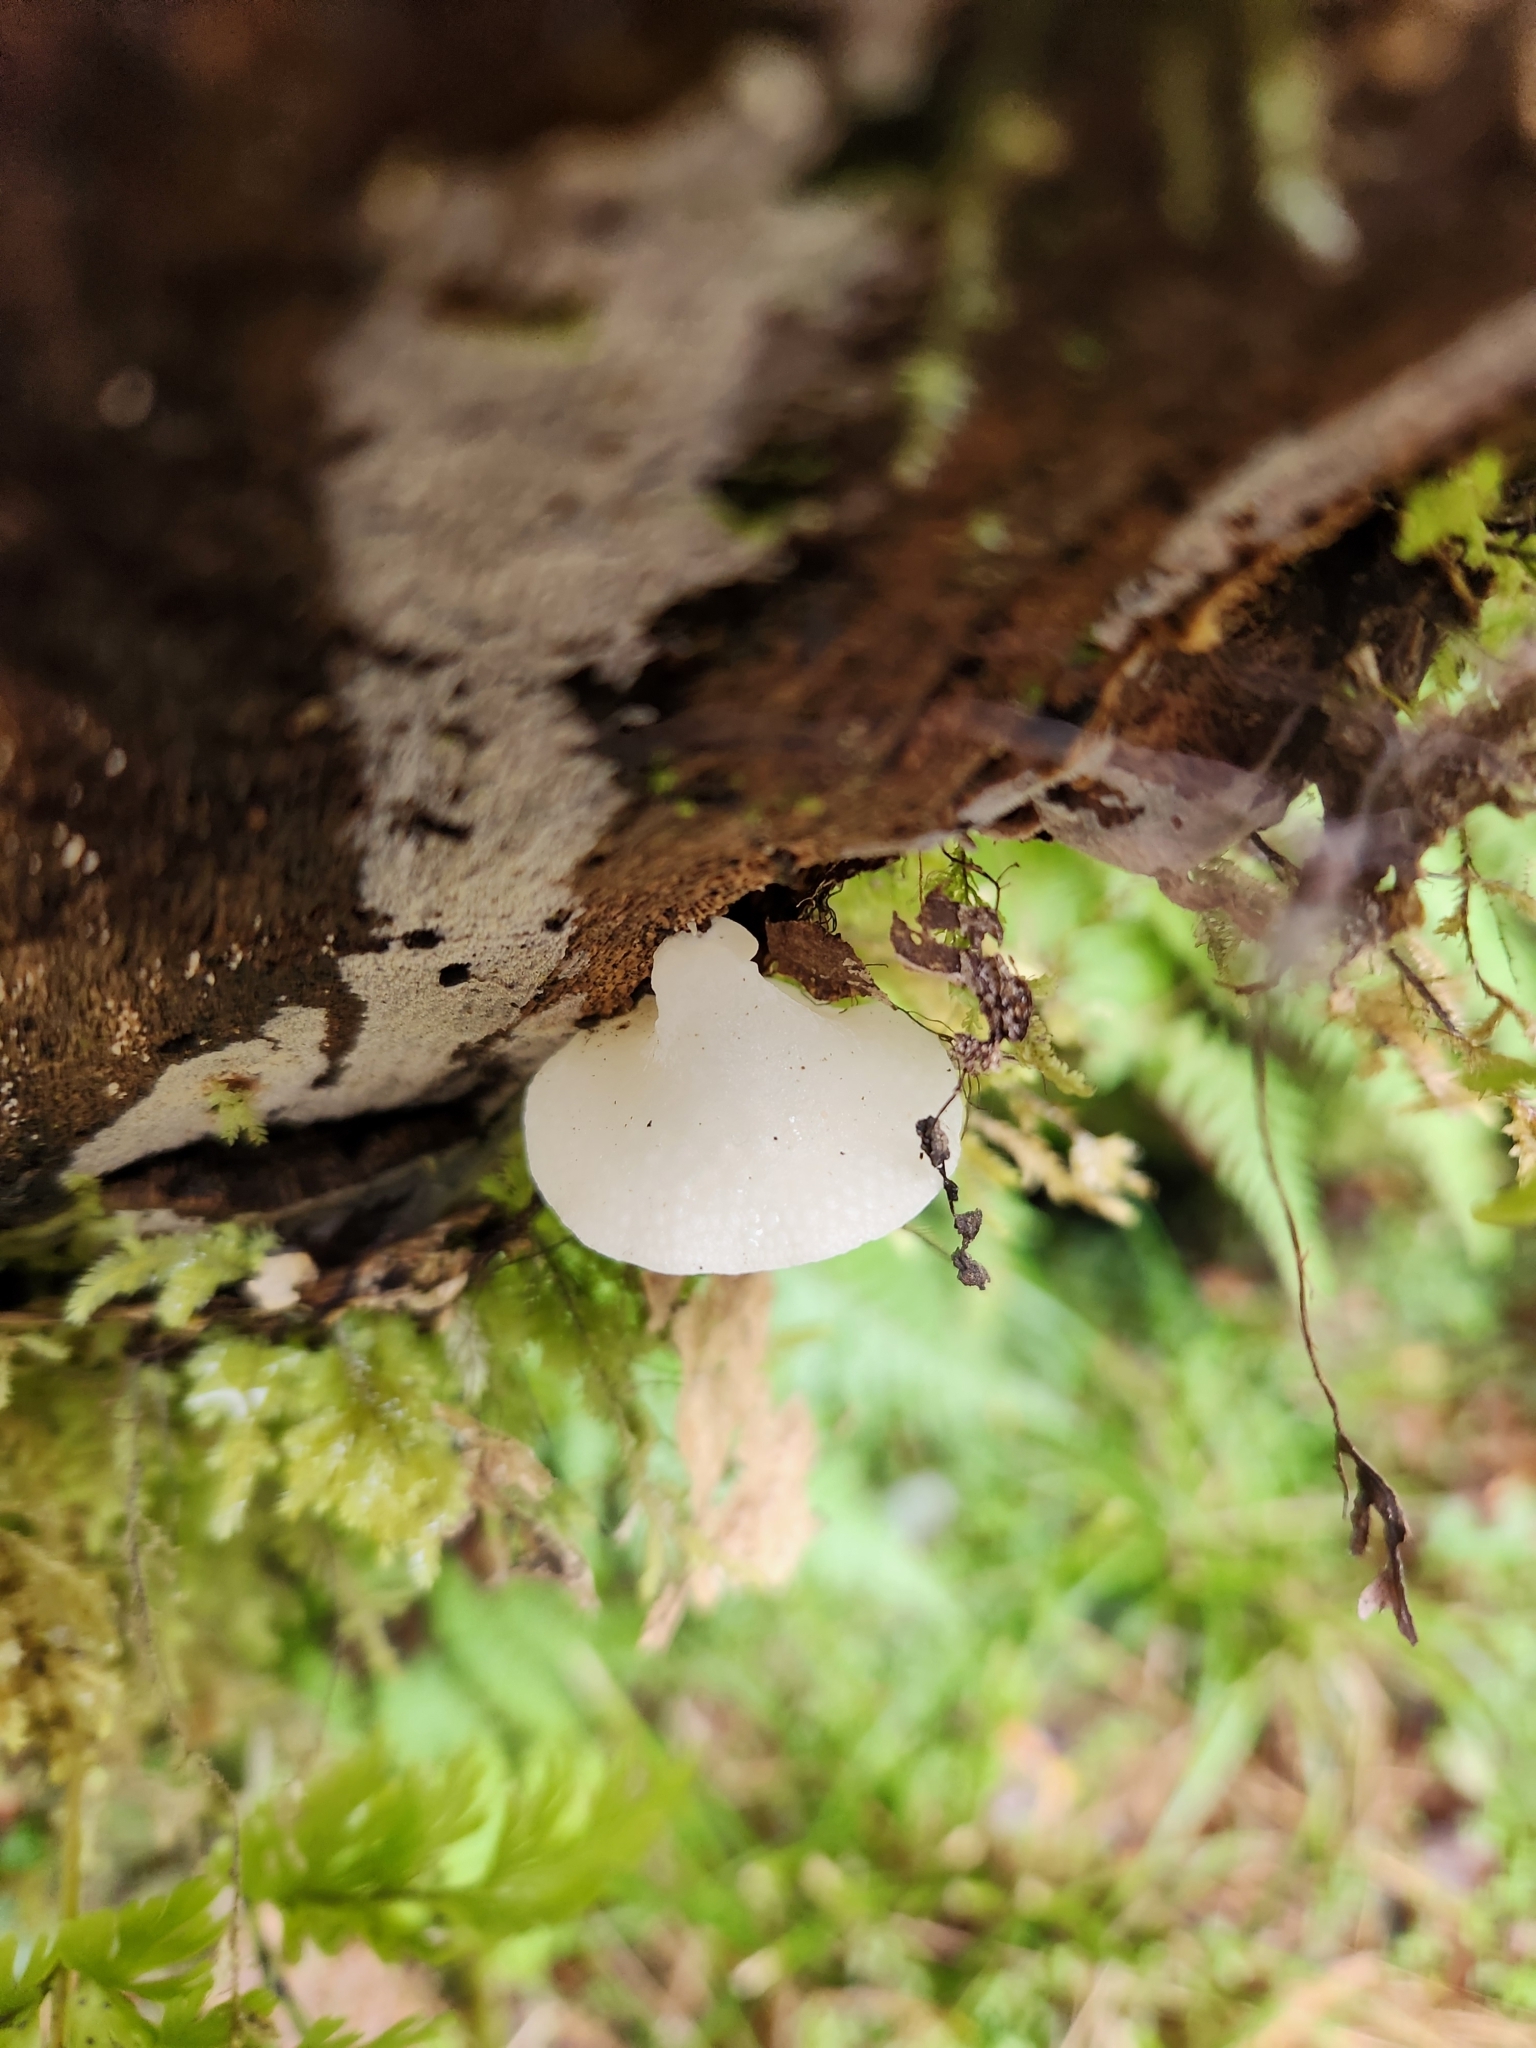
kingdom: Fungi
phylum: Basidiomycota
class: Agaricomycetes
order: Agaricales
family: Mycenaceae
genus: Favolaschia
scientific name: Favolaschia pustulosa
